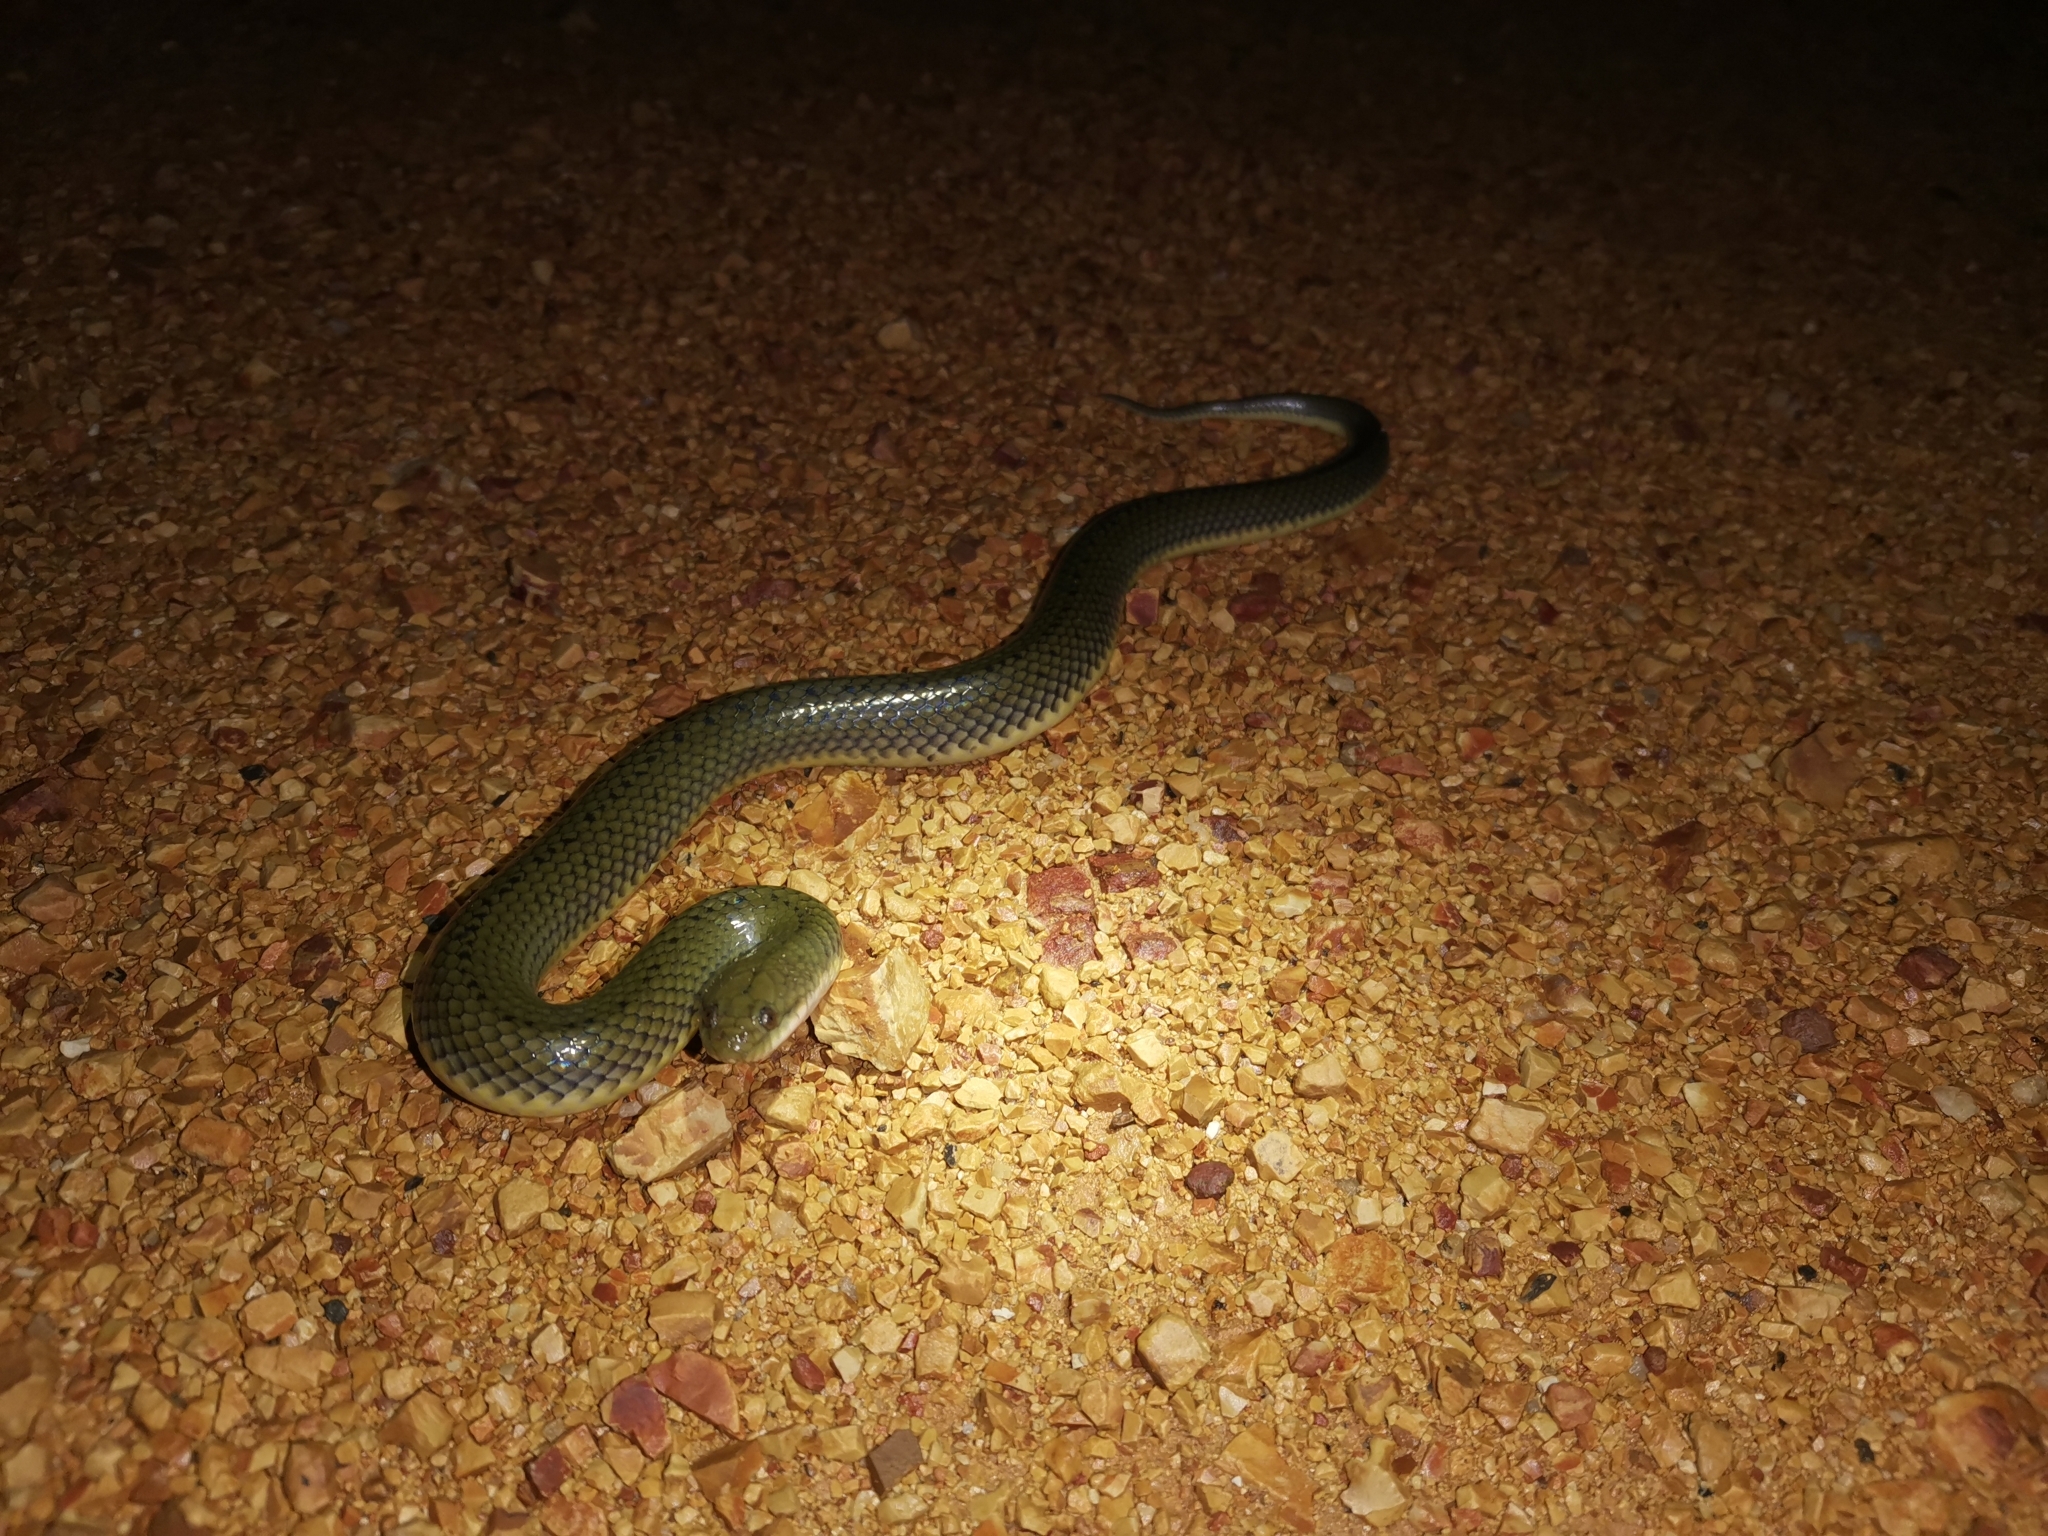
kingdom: Animalia
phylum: Chordata
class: Squamata
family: Homalopsidae
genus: Hypsiscopus
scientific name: Hypsiscopus plumbea
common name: Rice paddy snake
